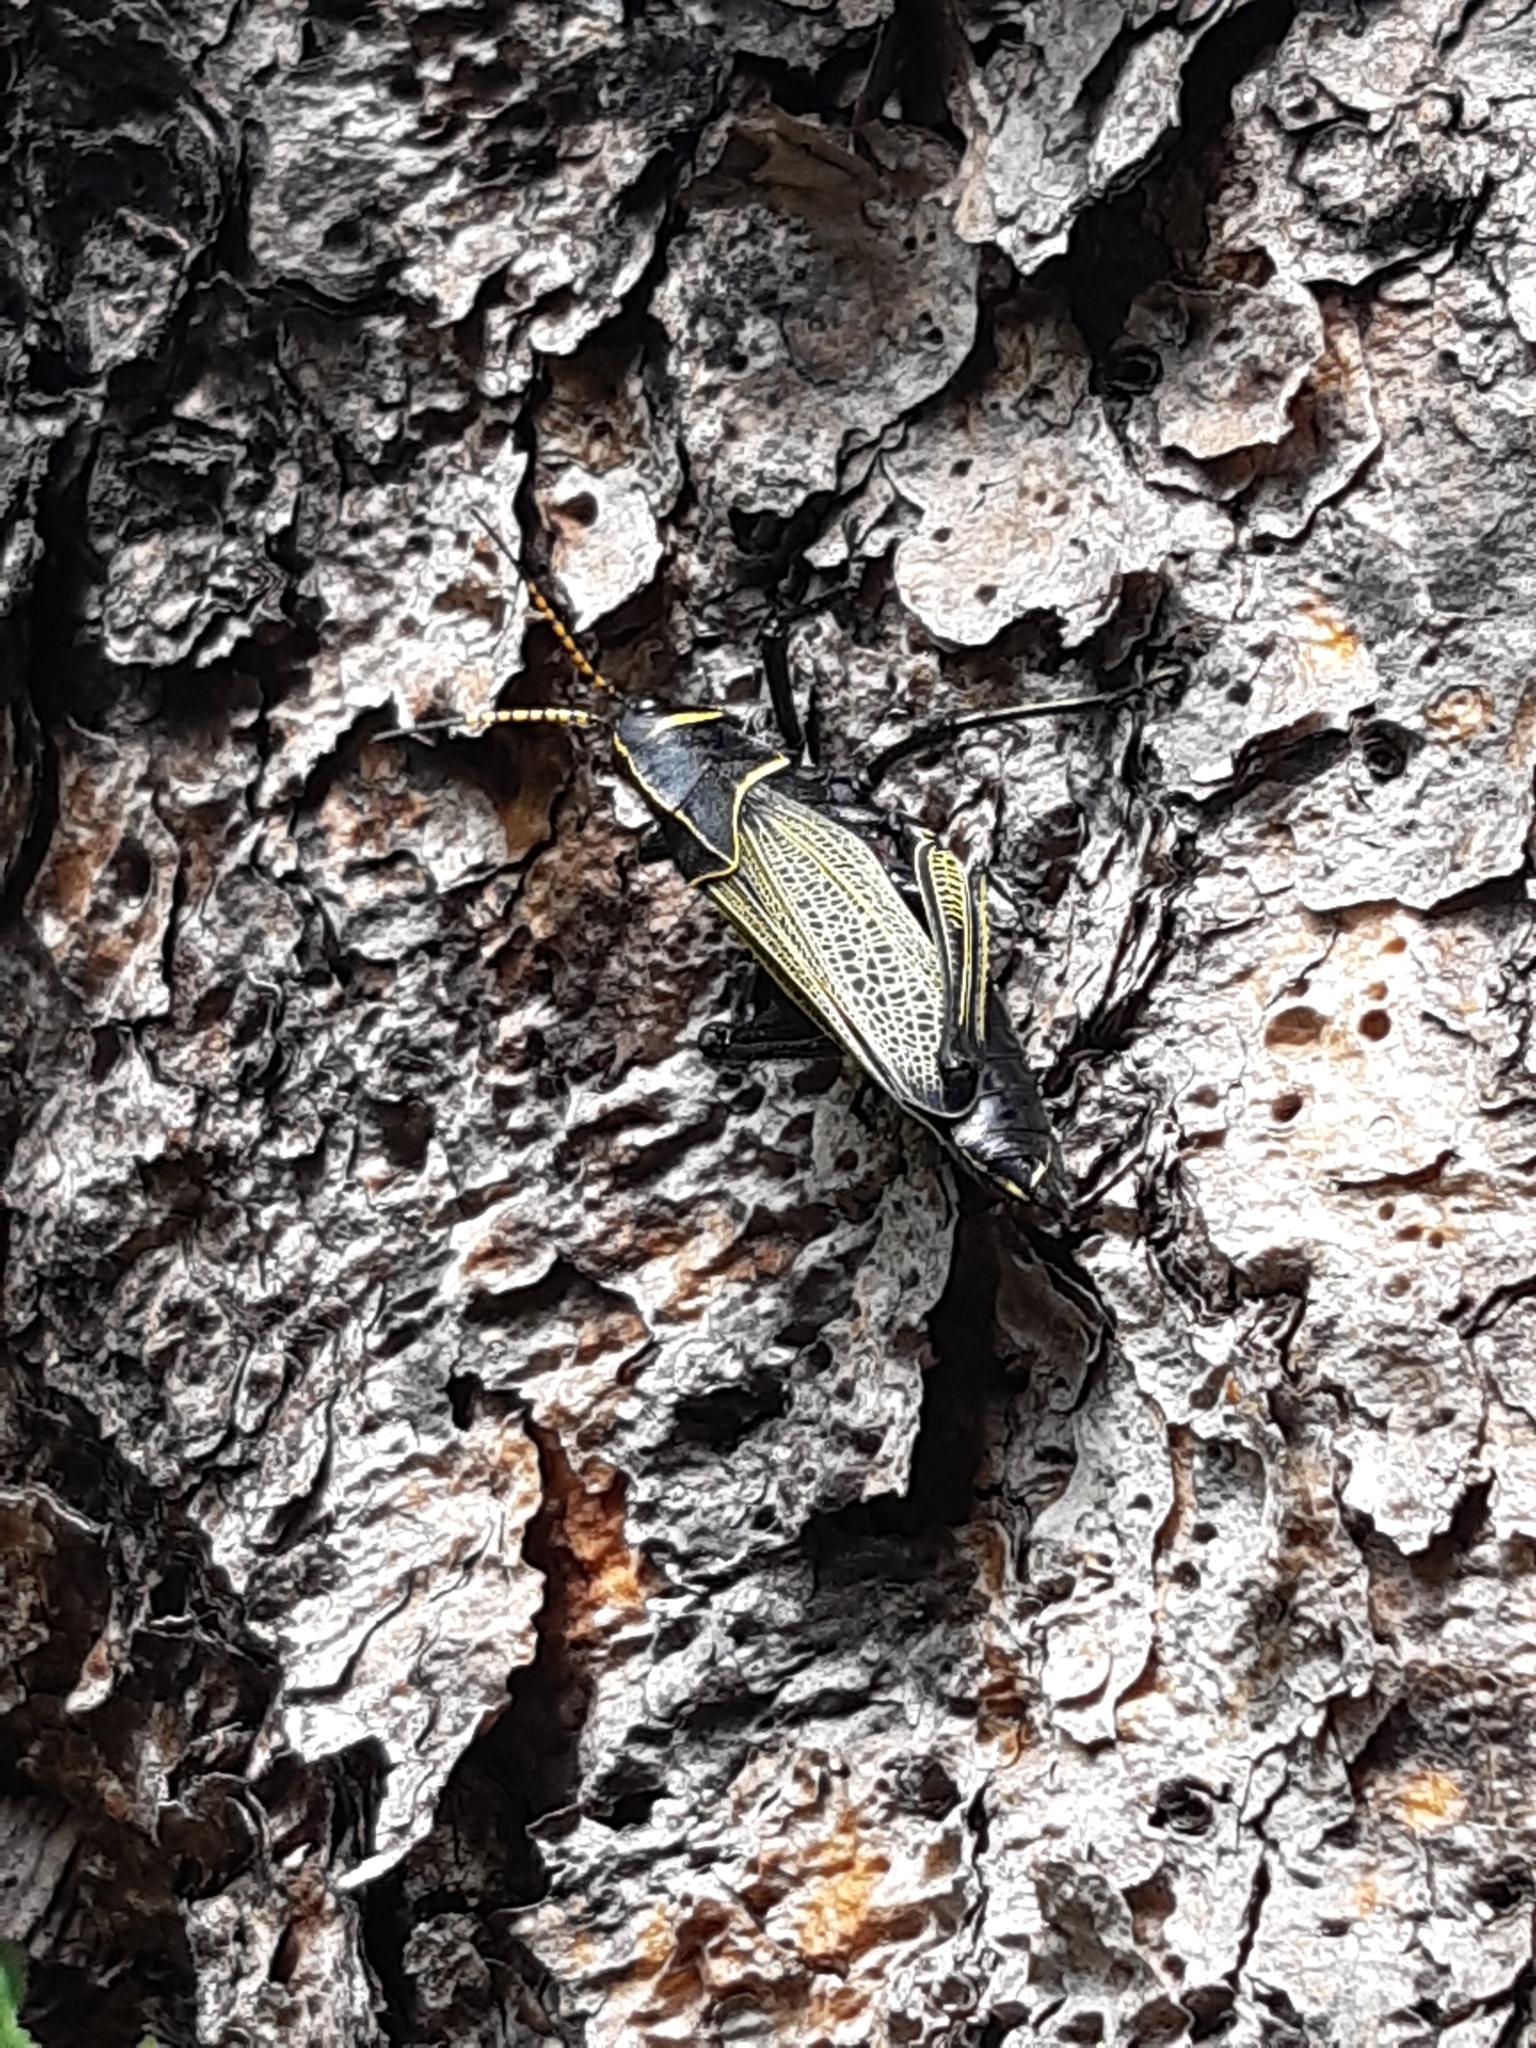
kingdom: Animalia
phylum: Arthropoda
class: Insecta
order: Orthoptera
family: Romaleidae
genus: Romalea
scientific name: Romalea
